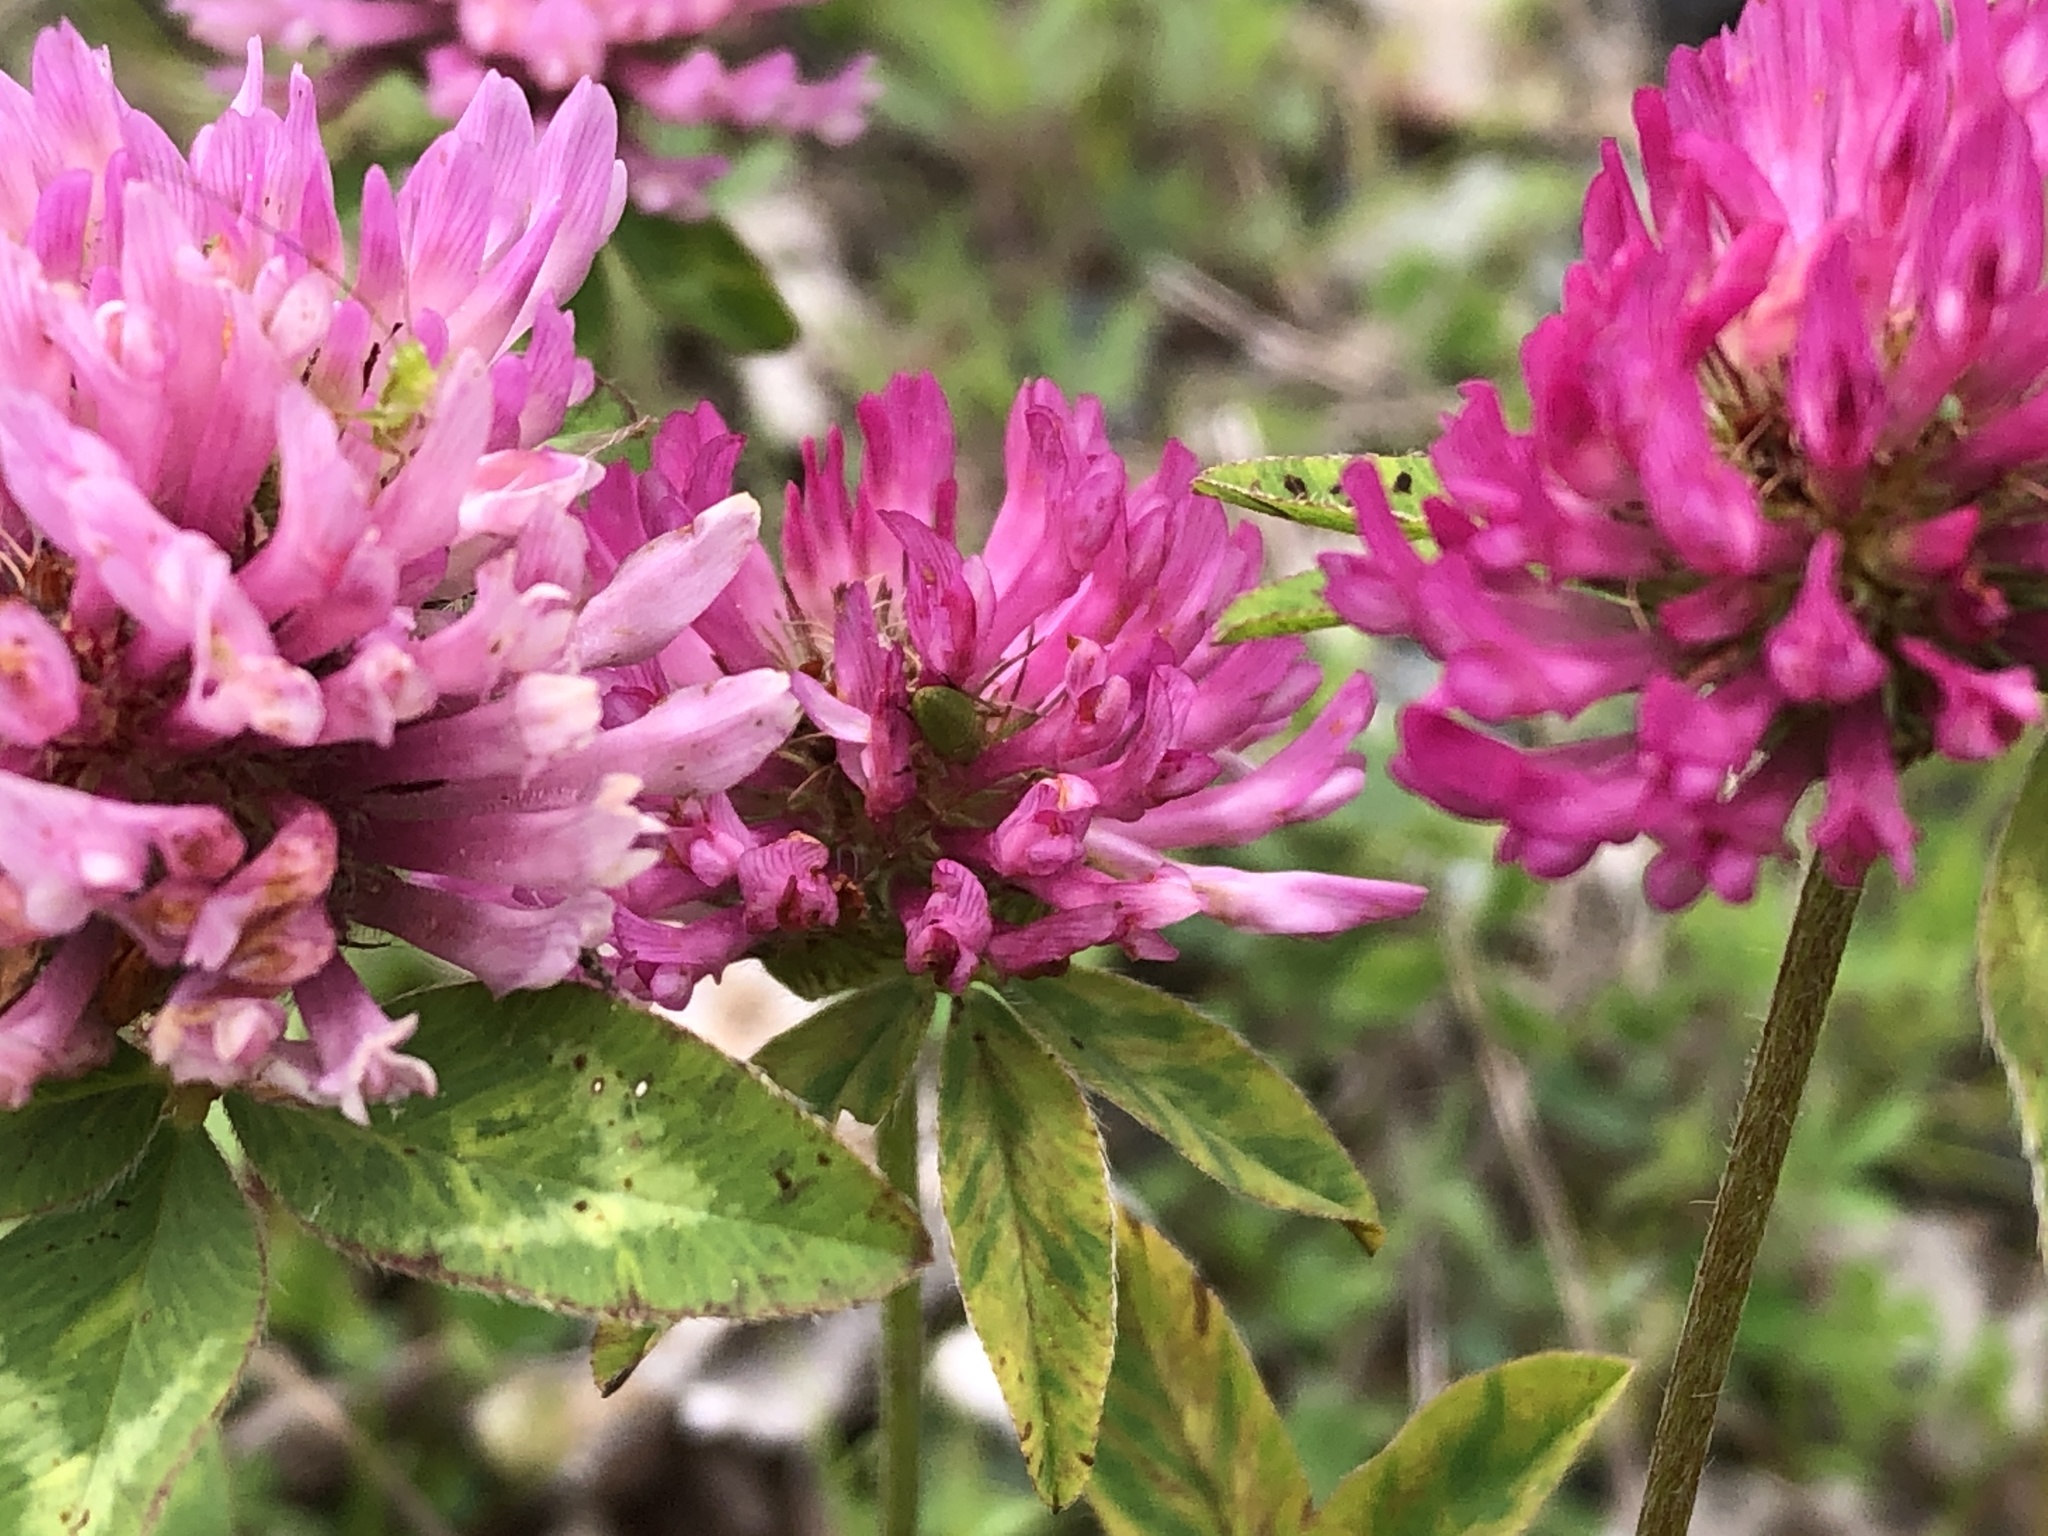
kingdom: Plantae
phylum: Tracheophyta
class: Magnoliopsida
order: Fabales
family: Fabaceae
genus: Trifolium
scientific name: Trifolium pratense
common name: Red clover
